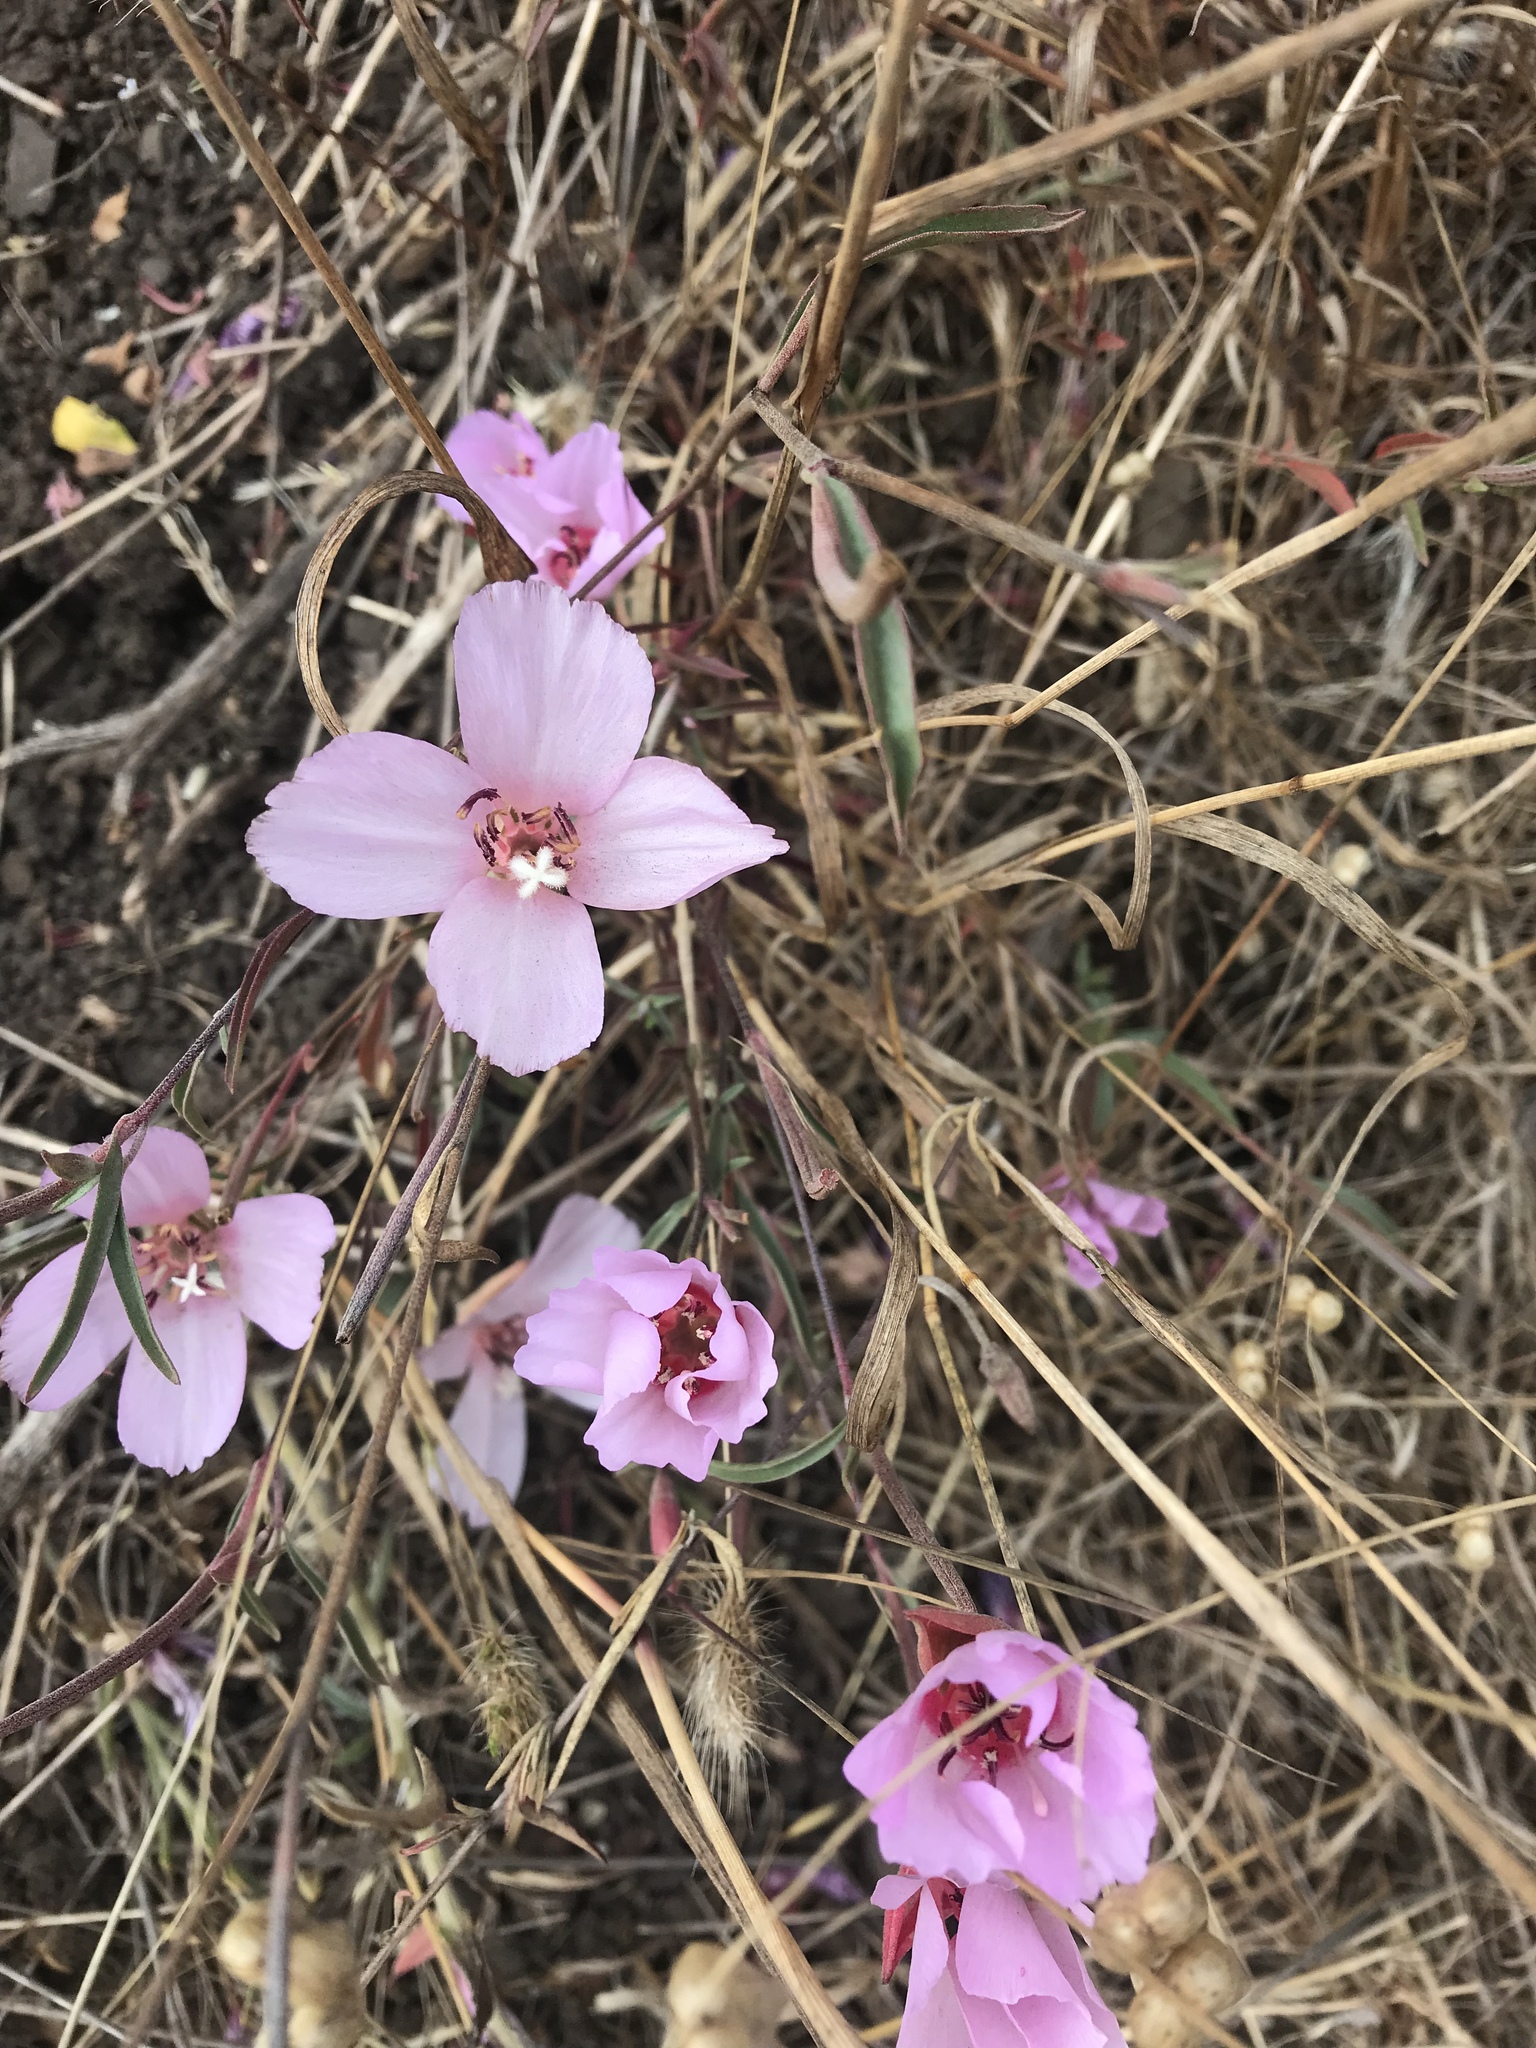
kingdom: Plantae
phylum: Tracheophyta
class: Magnoliopsida
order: Myrtales
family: Onagraceae
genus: Clarkia
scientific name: Clarkia rubicunda
